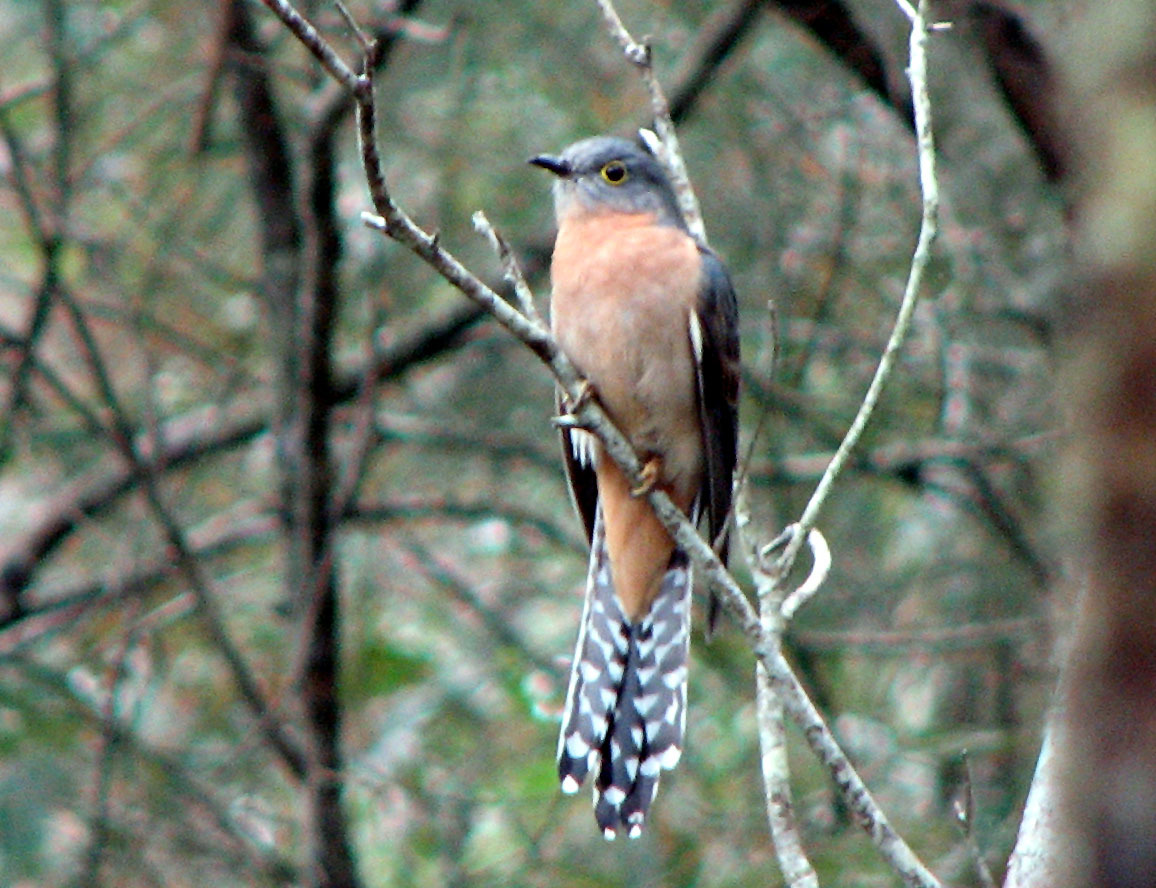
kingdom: Animalia
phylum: Chordata
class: Aves
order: Cuculiformes
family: Cuculidae
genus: Cacomantis
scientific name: Cacomantis flabelliformis
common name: Fan-tailed cuckoo
